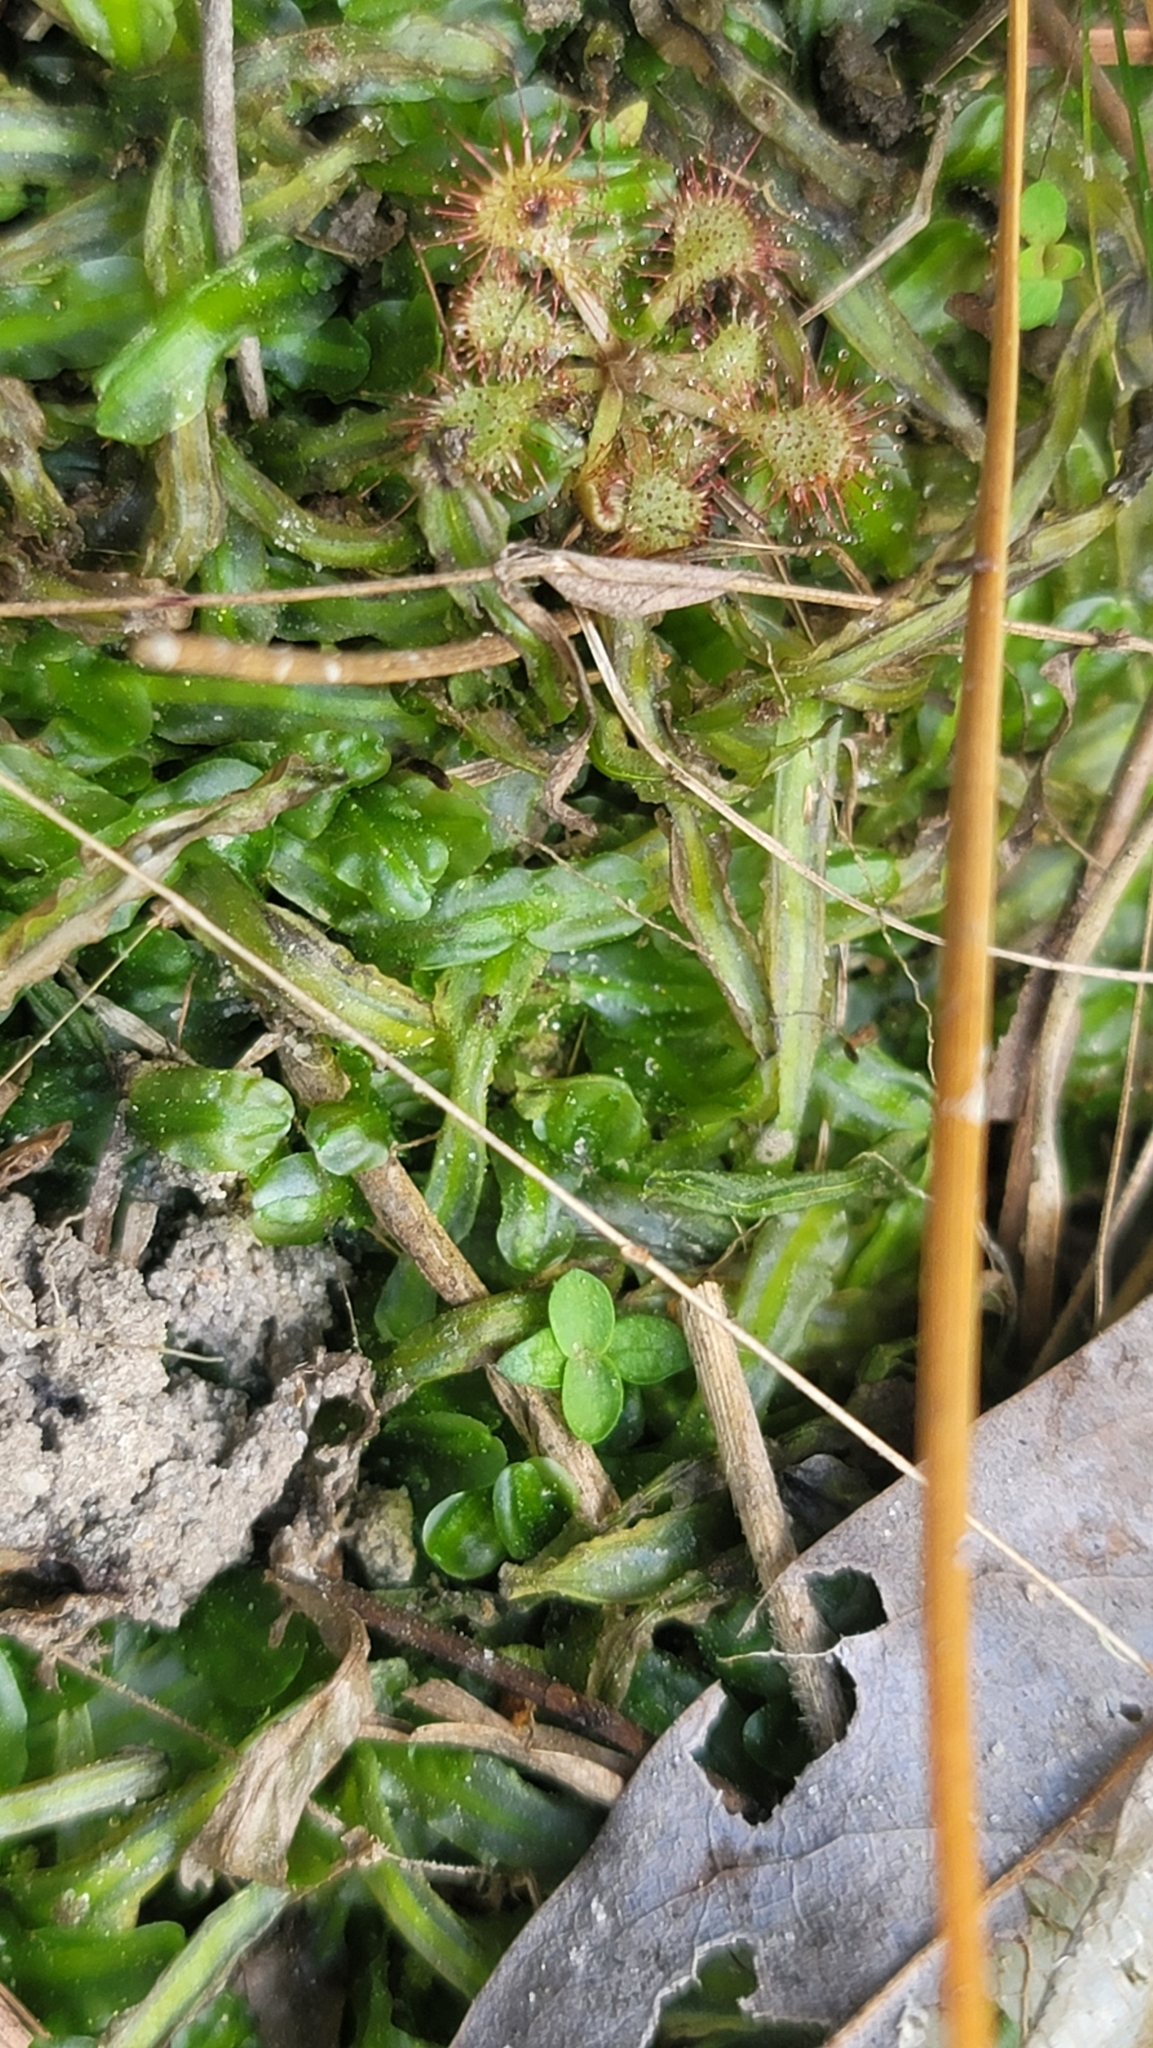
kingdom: Plantae
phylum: Marchantiophyta
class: Jungermanniopsida
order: Pallaviciniales
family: Pallaviciniaceae
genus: Pallavicinia
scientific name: Pallavicinia lyellii
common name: Veilwort
